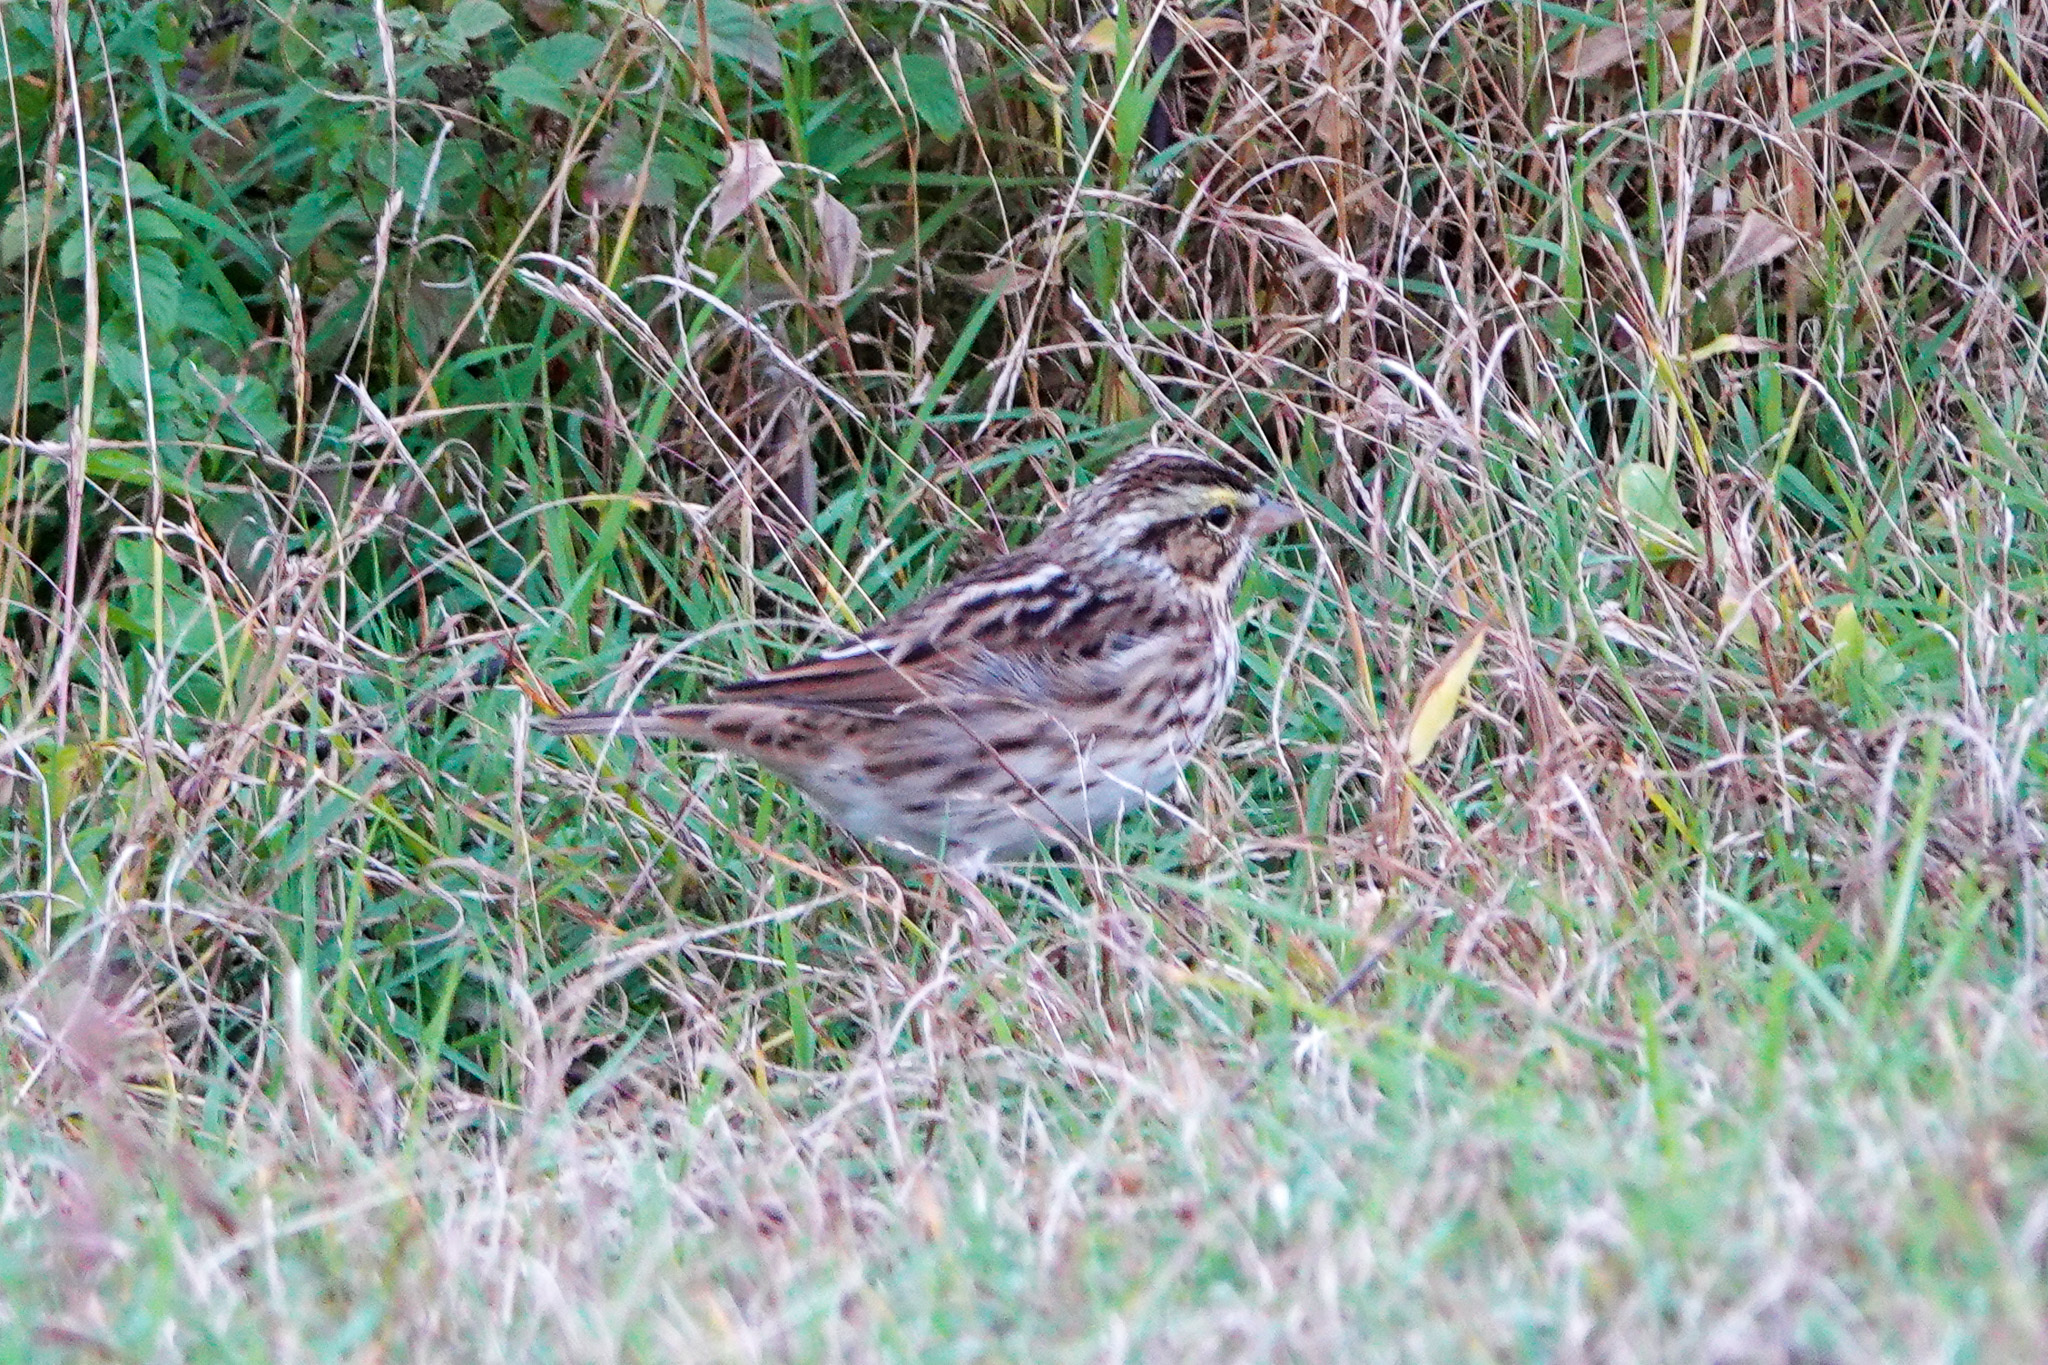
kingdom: Animalia
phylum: Chordata
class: Aves
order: Passeriformes
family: Passerellidae
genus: Passerculus
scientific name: Passerculus sandwichensis
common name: Savannah sparrow
